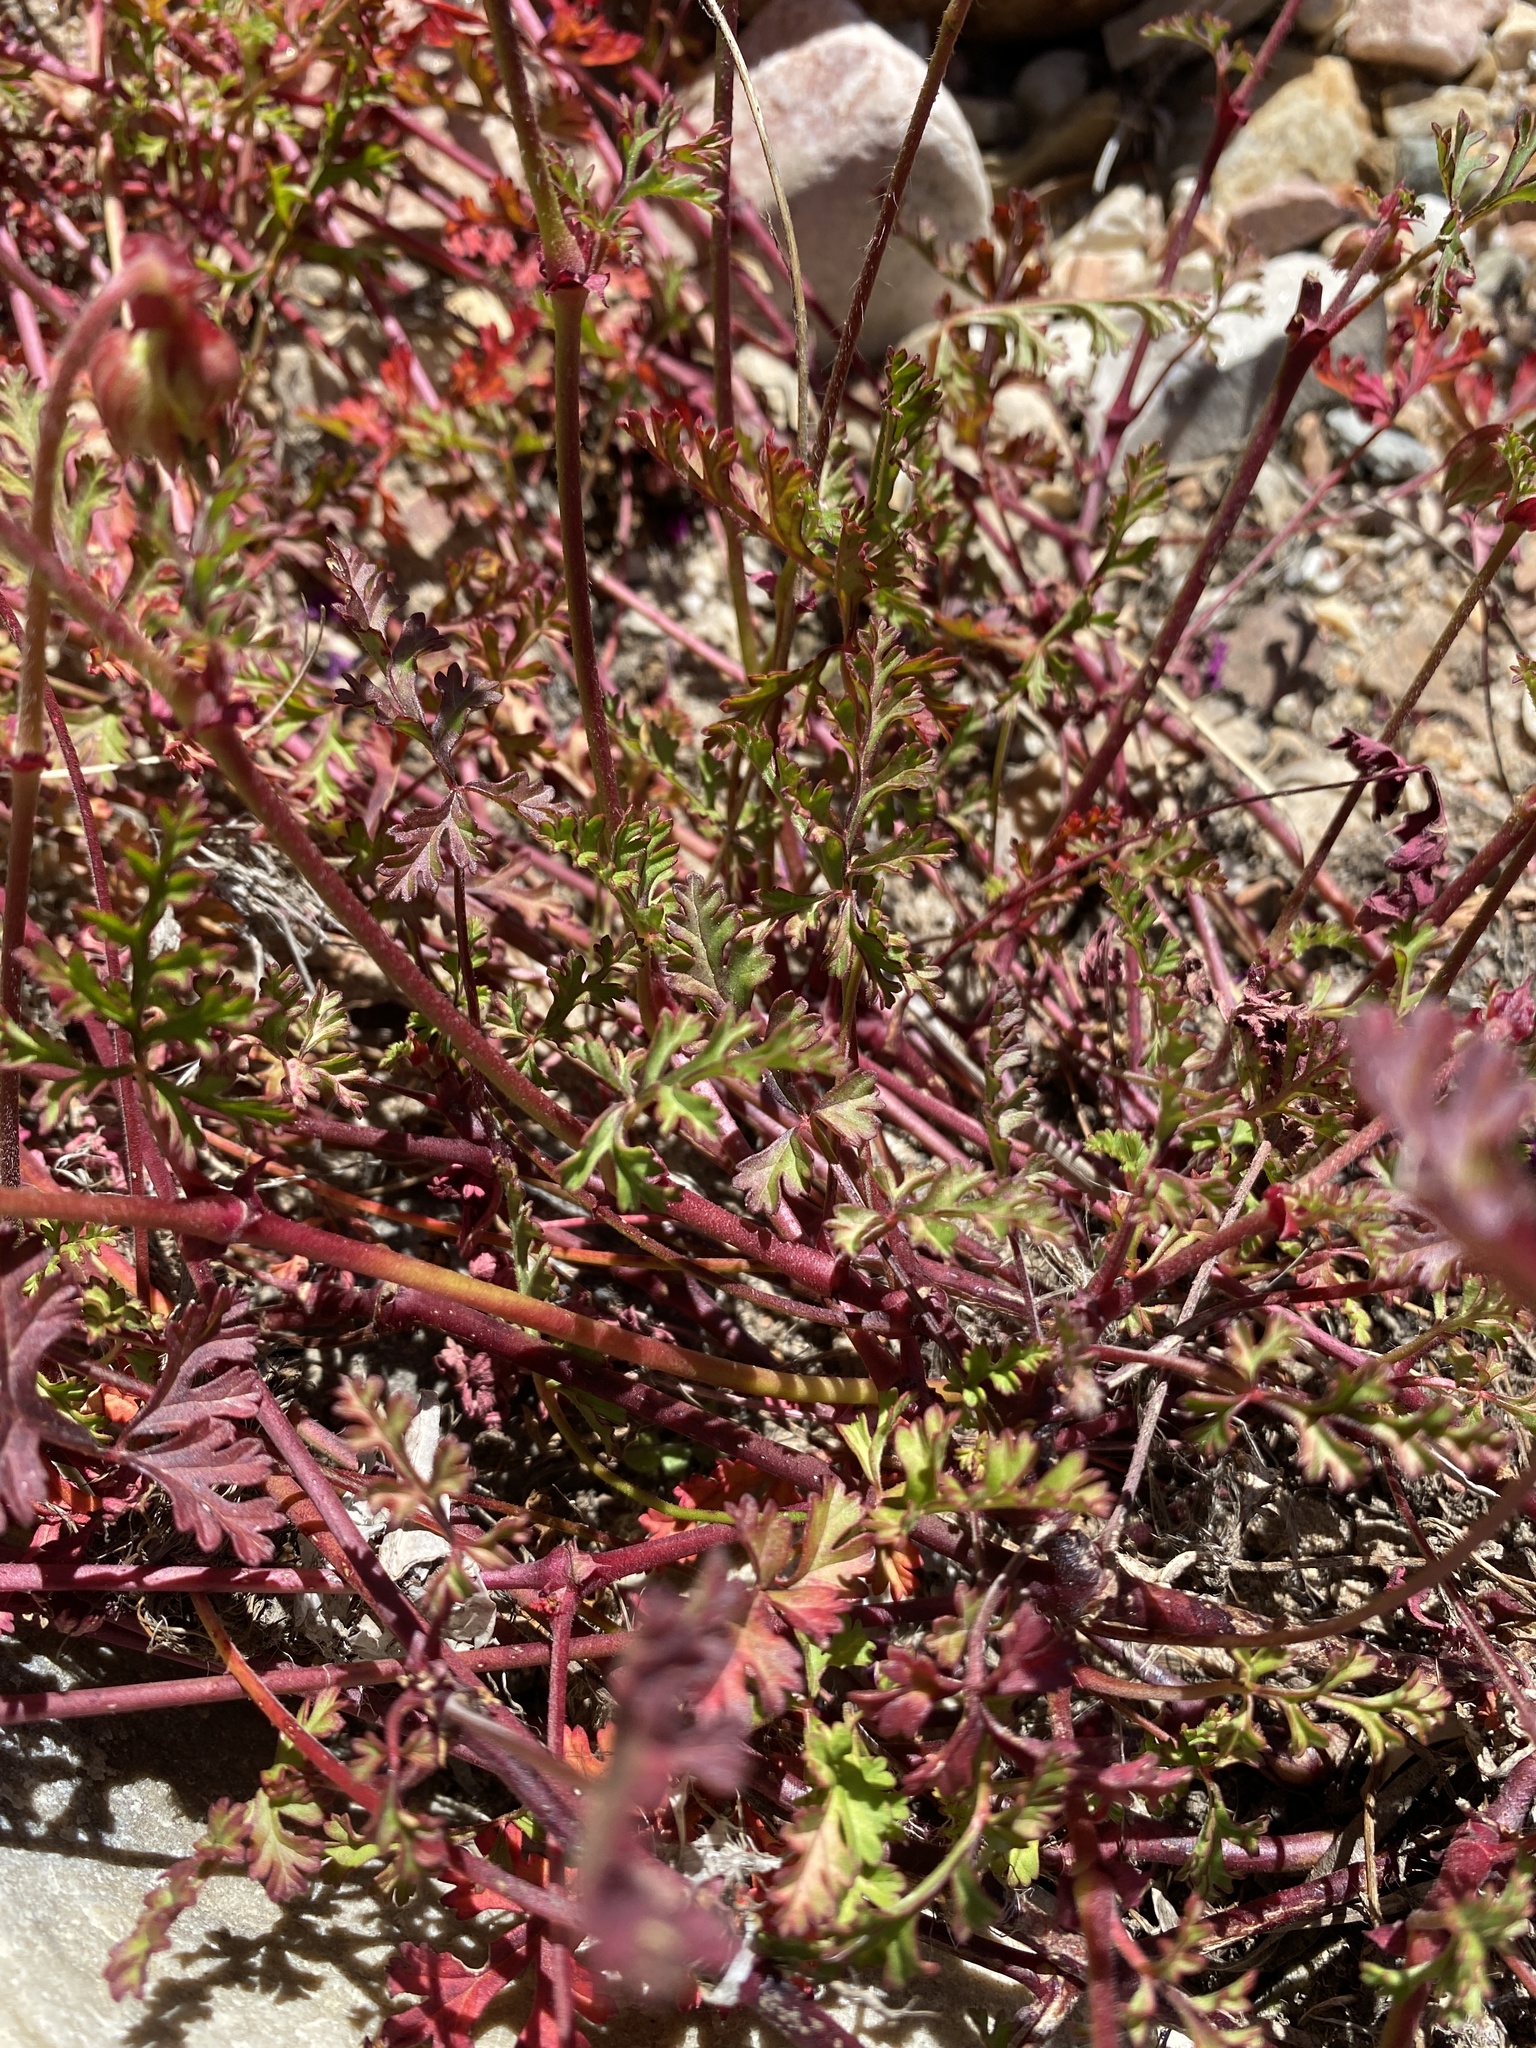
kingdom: Plantae
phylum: Tracheophyta
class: Magnoliopsida
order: Geraniales
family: Geraniaceae
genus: Pelargonium
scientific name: Pelargonium multicaule
